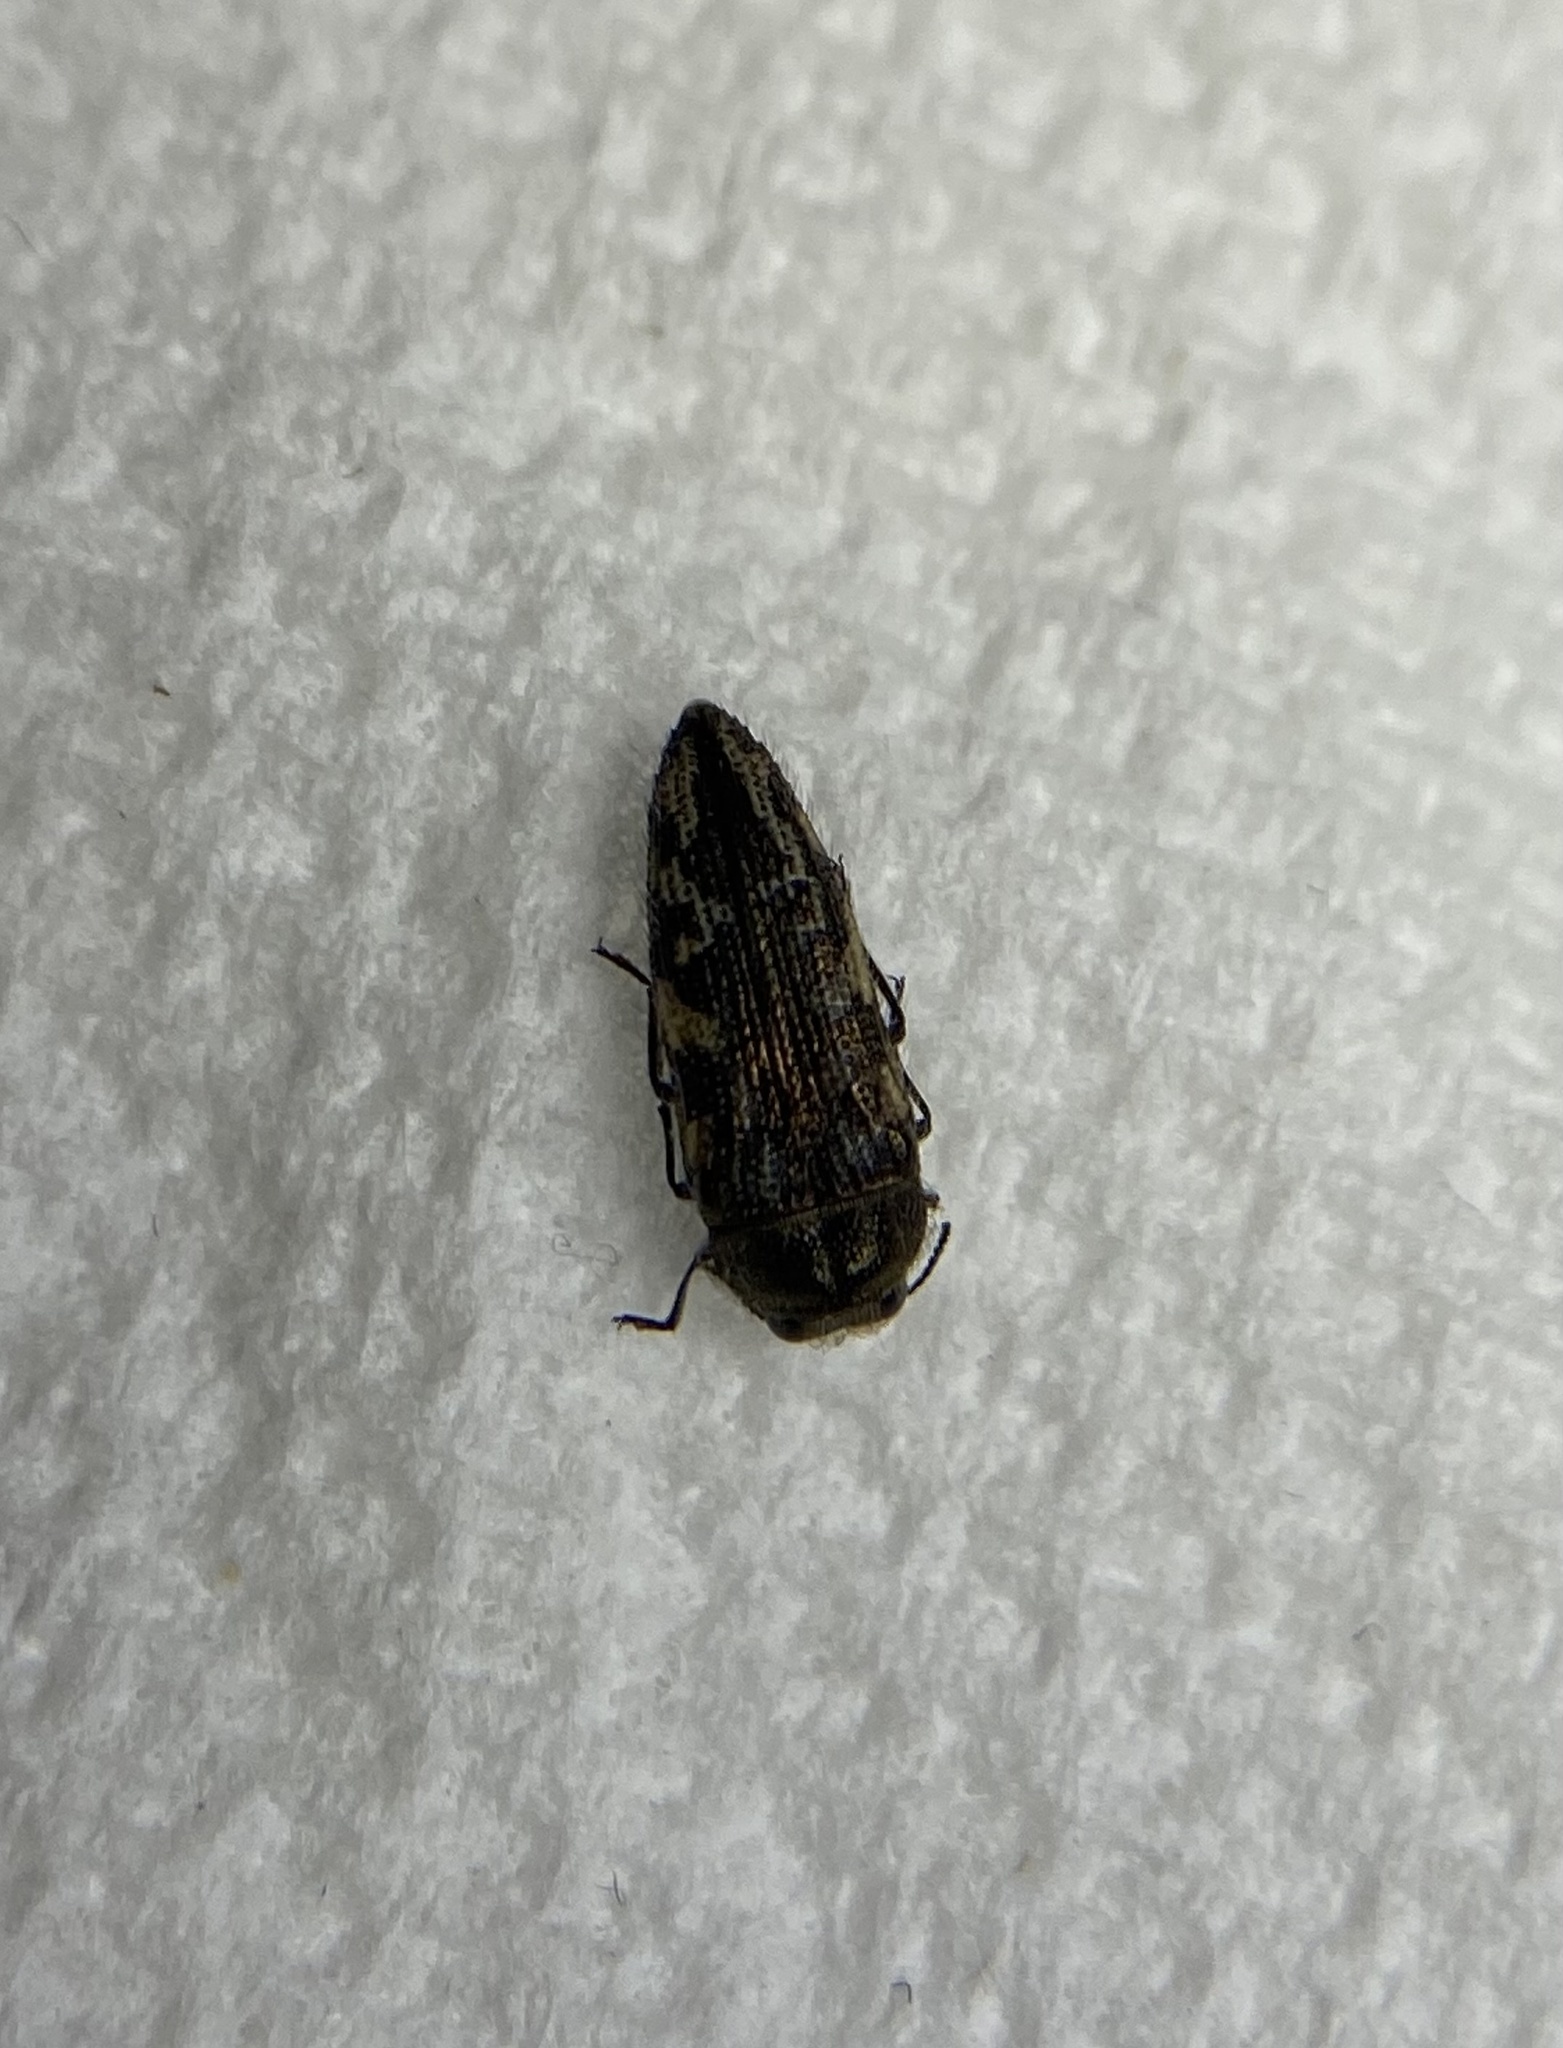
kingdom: Animalia
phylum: Arthropoda
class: Insecta
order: Coleoptera
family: Buprestidae
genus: Acmaeodera
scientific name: Acmaeodera cuneata
